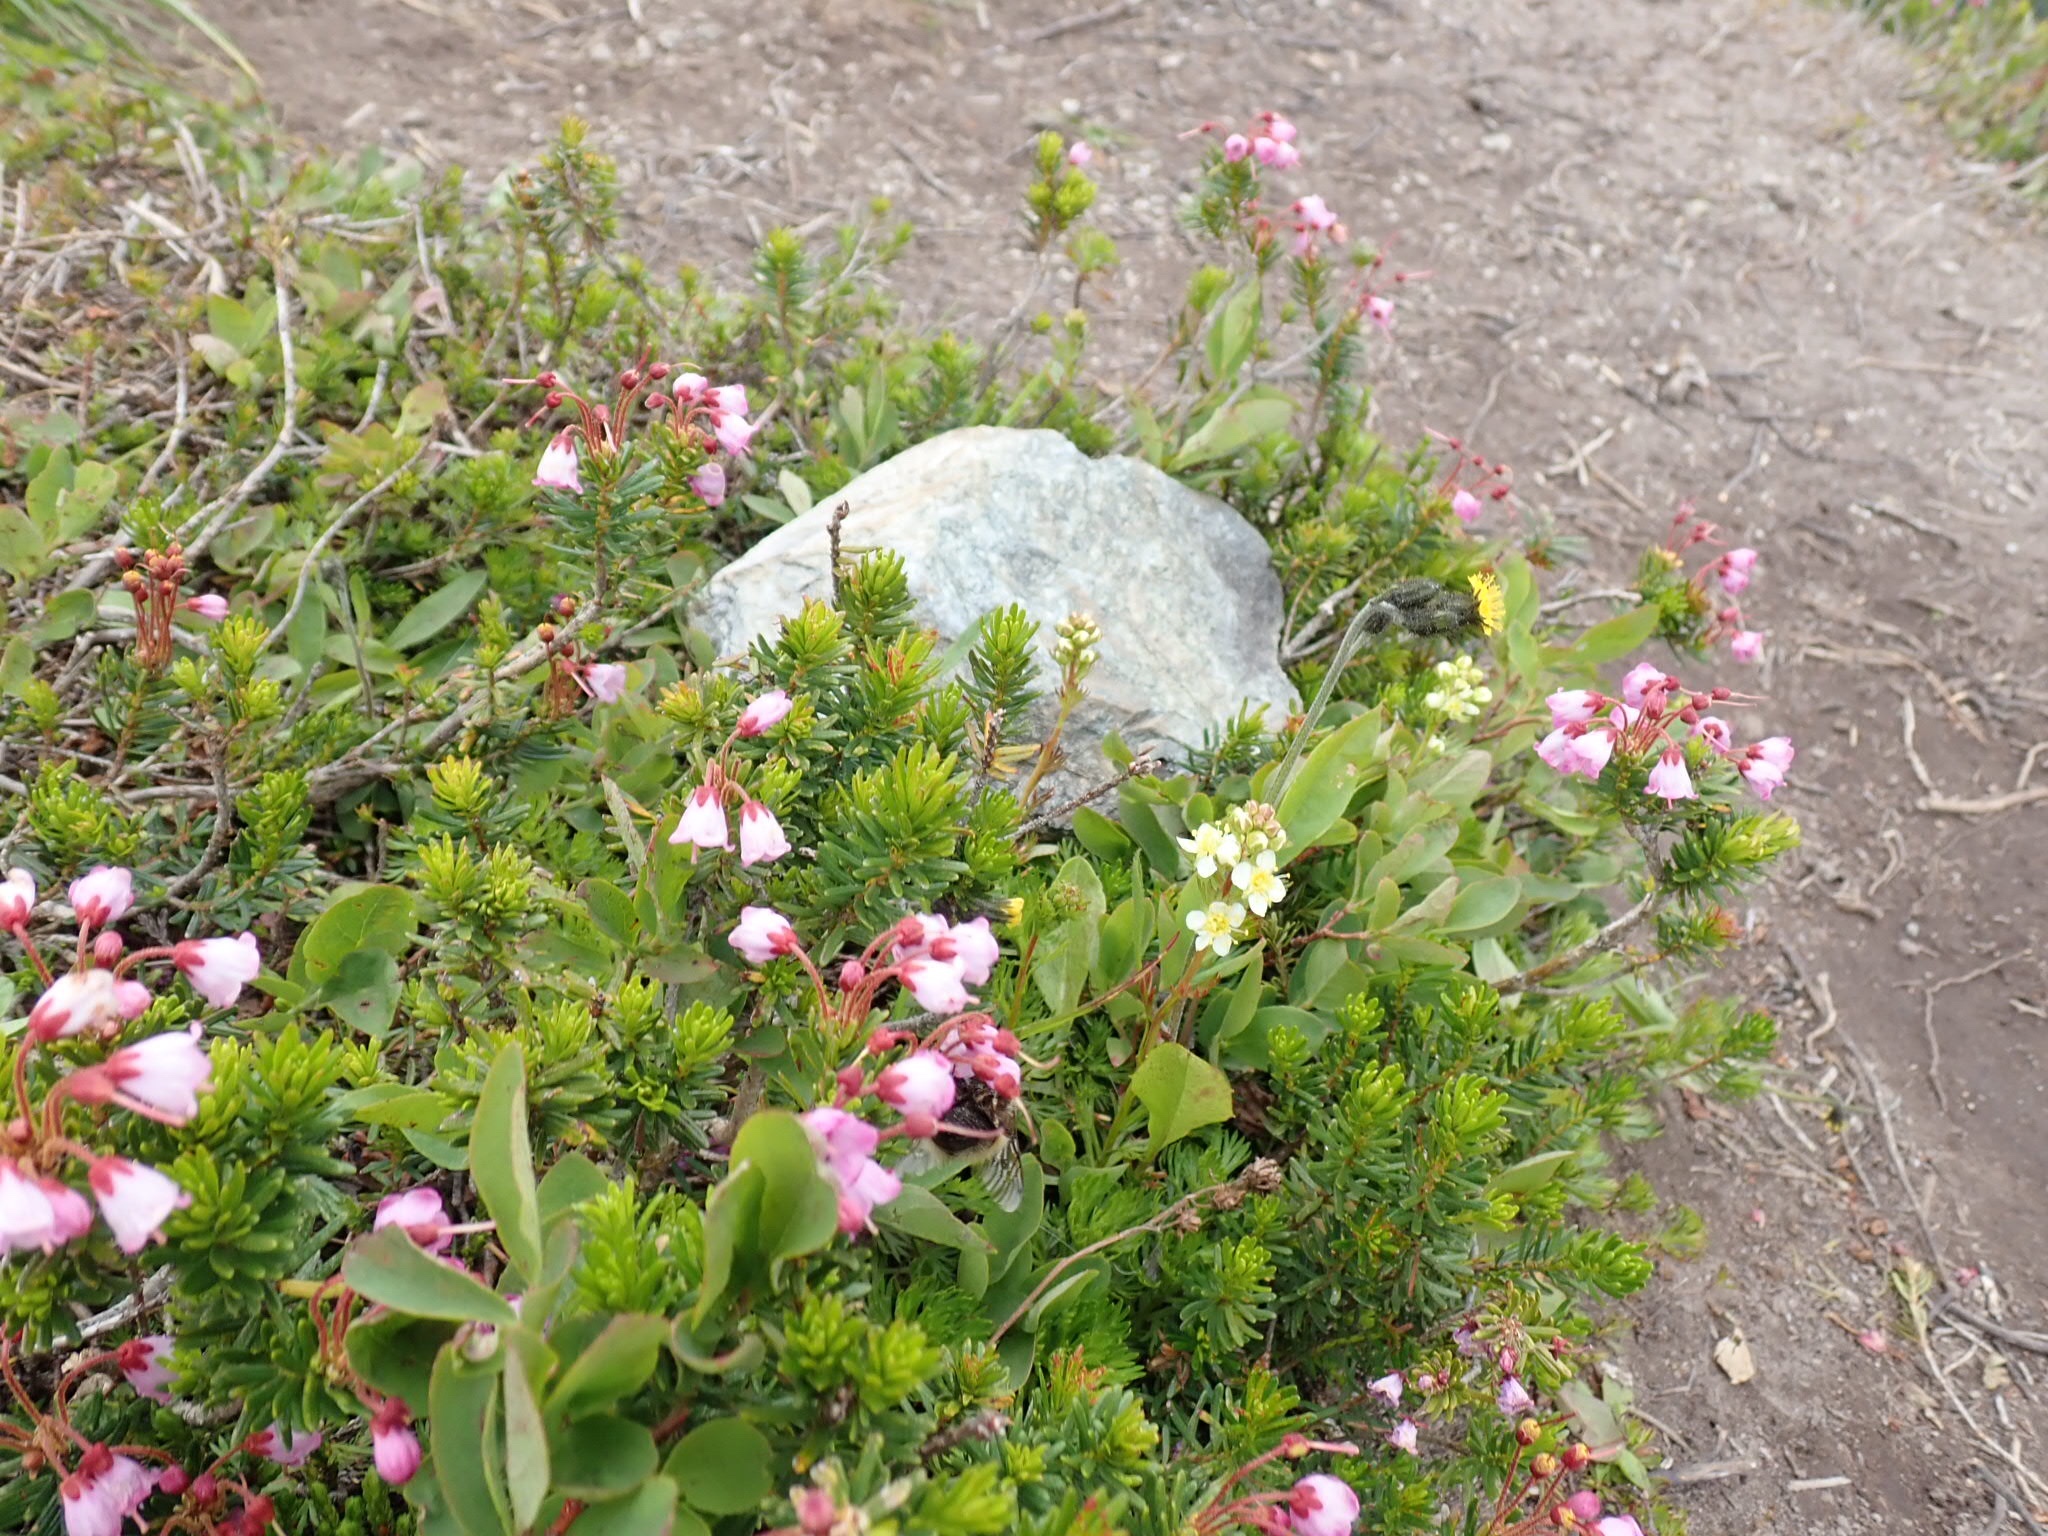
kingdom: Plantae
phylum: Tracheophyta
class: Magnoliopsida
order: Ericales
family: Ericaceae
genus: Phyllodoce
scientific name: Phyllodoce empetriformis
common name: Pink mountain heather
